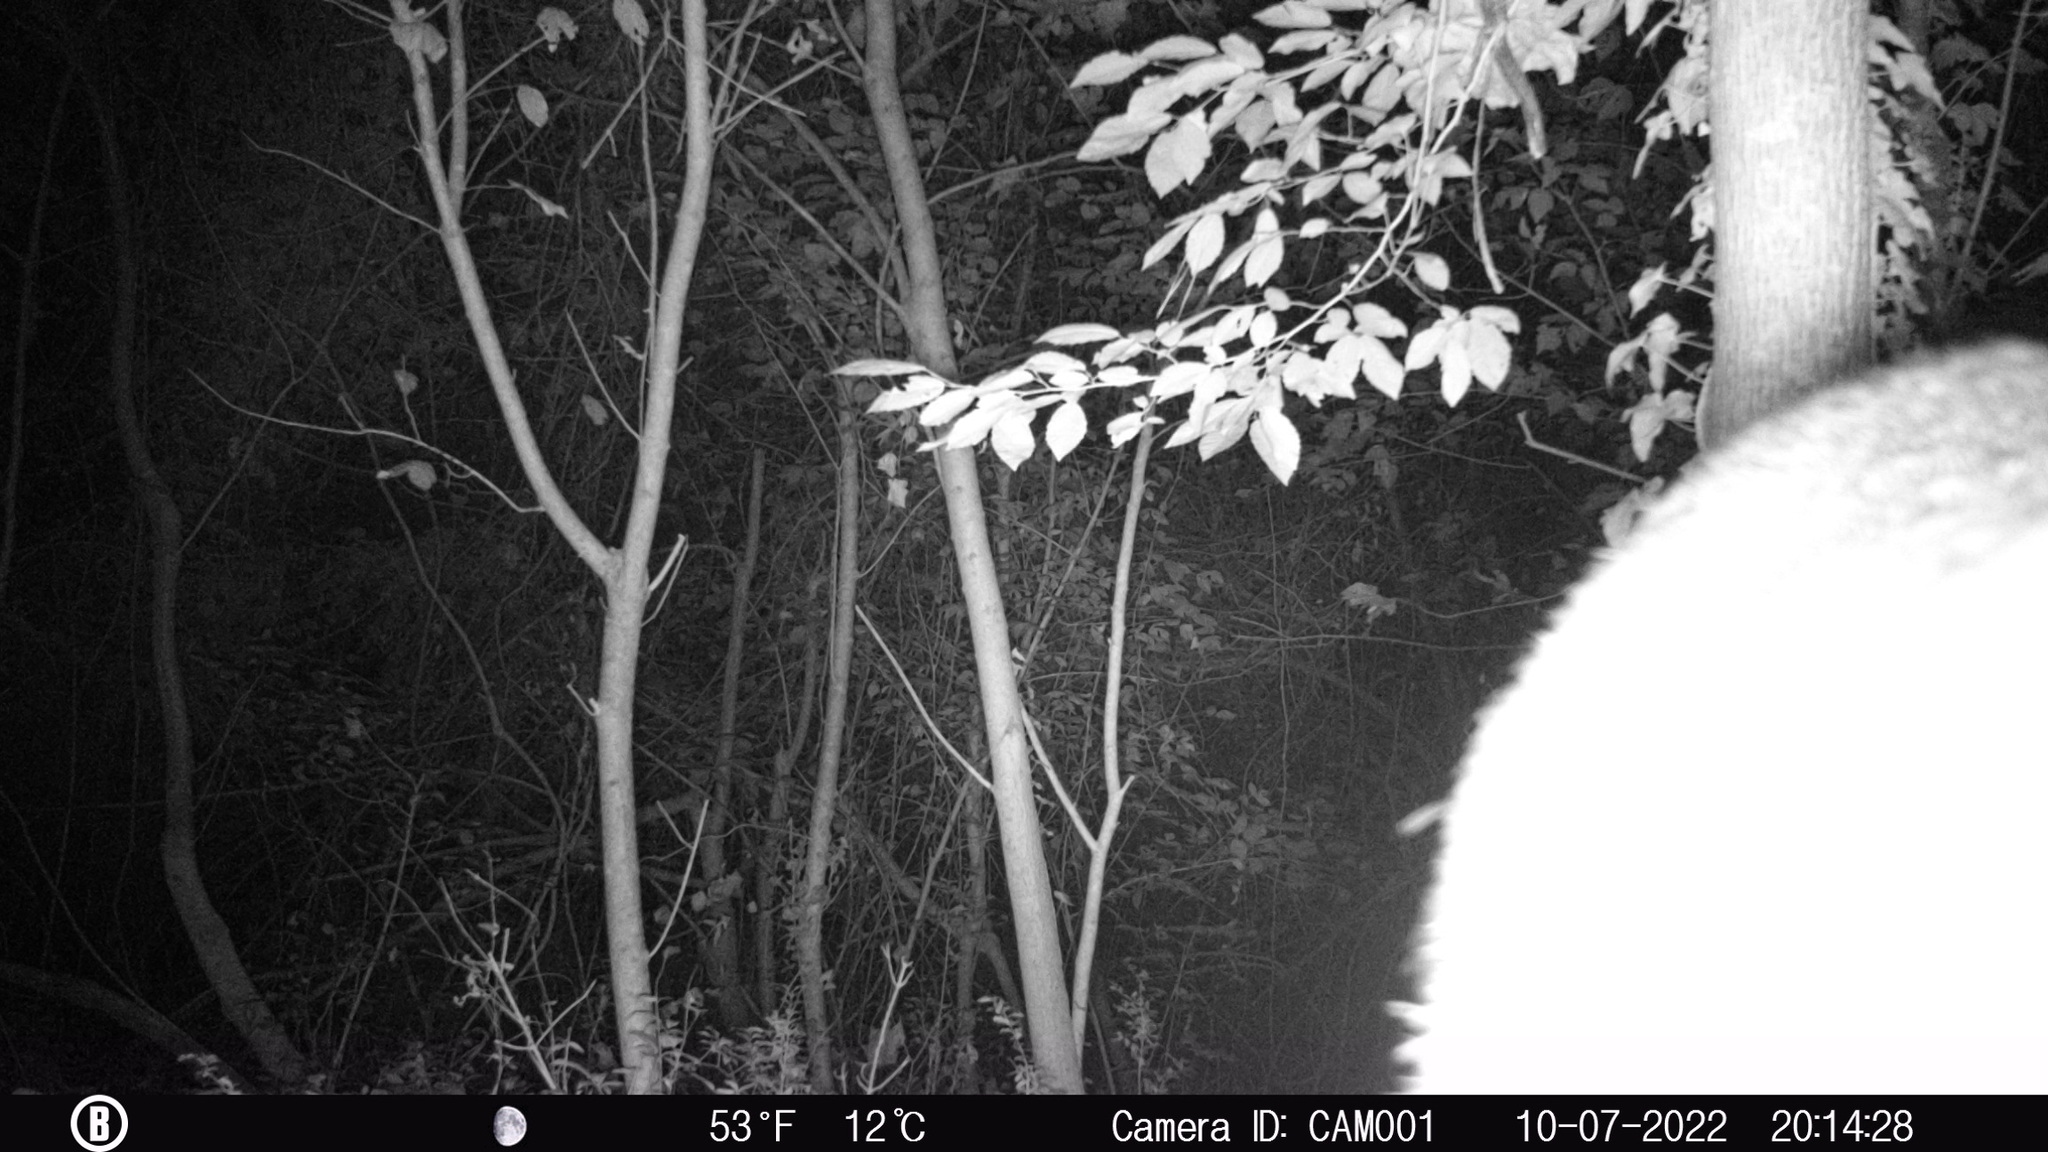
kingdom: Animalia
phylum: Chordata
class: Mammalia
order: Artiodactyla
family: Cervidae
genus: Odocoileus
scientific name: Odocoileus virginianus
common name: White-tailed deer
